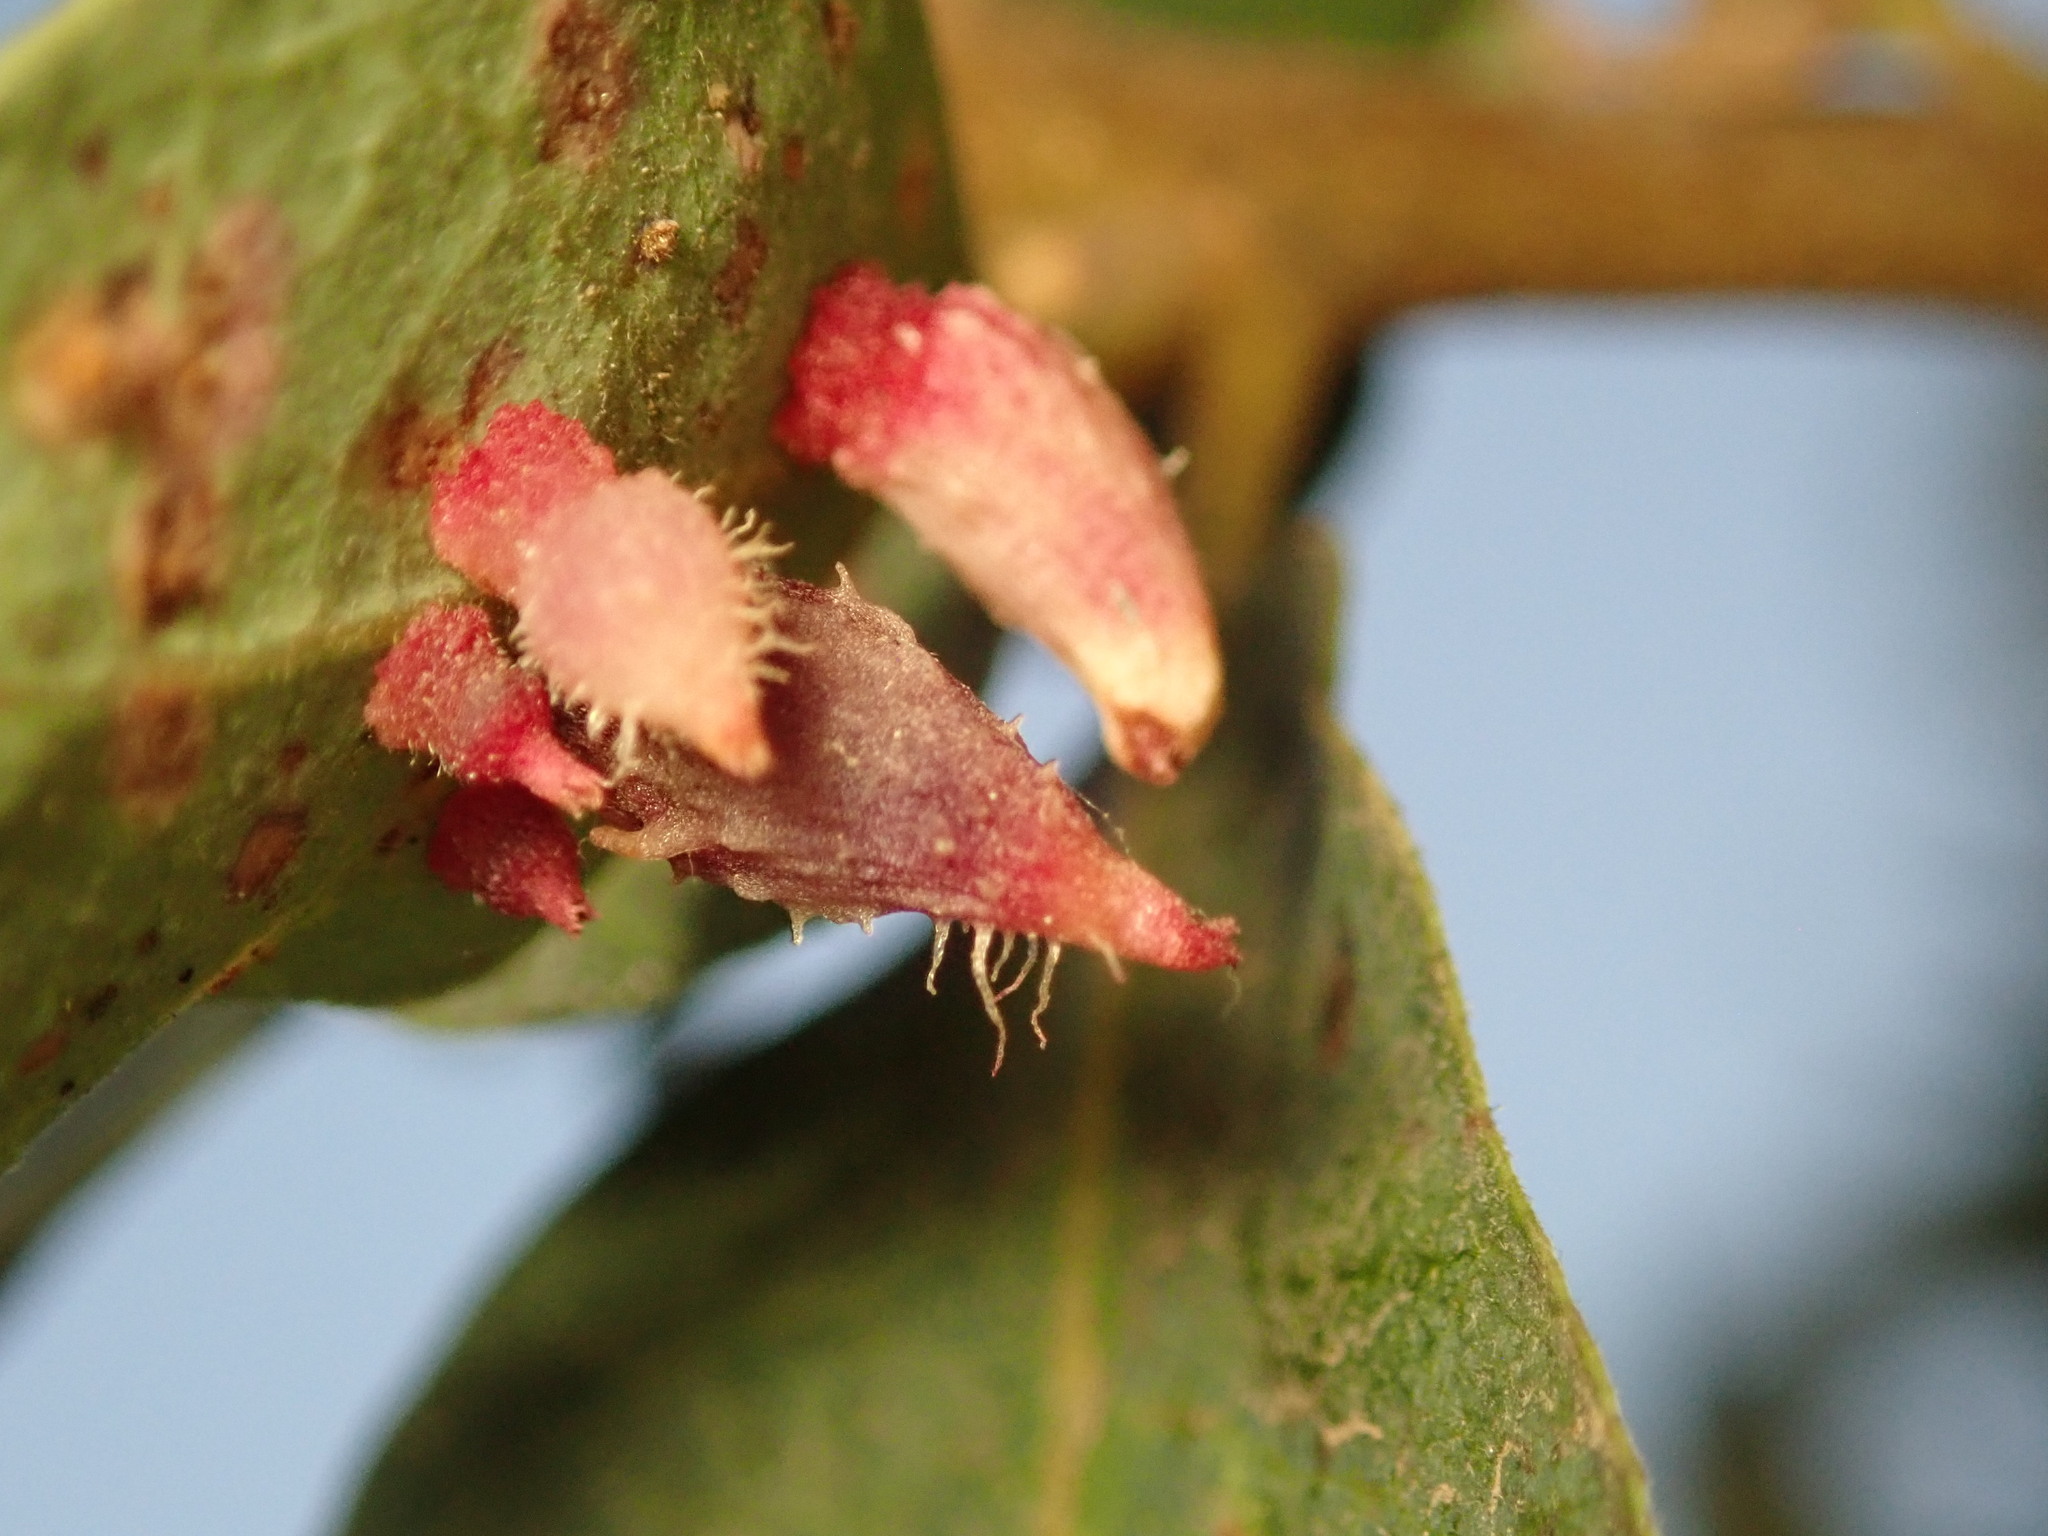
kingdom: Animalia
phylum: Arthropoda
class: Insecta
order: Hymenoptera
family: Cynipidae
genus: Andricus
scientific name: Andricus
